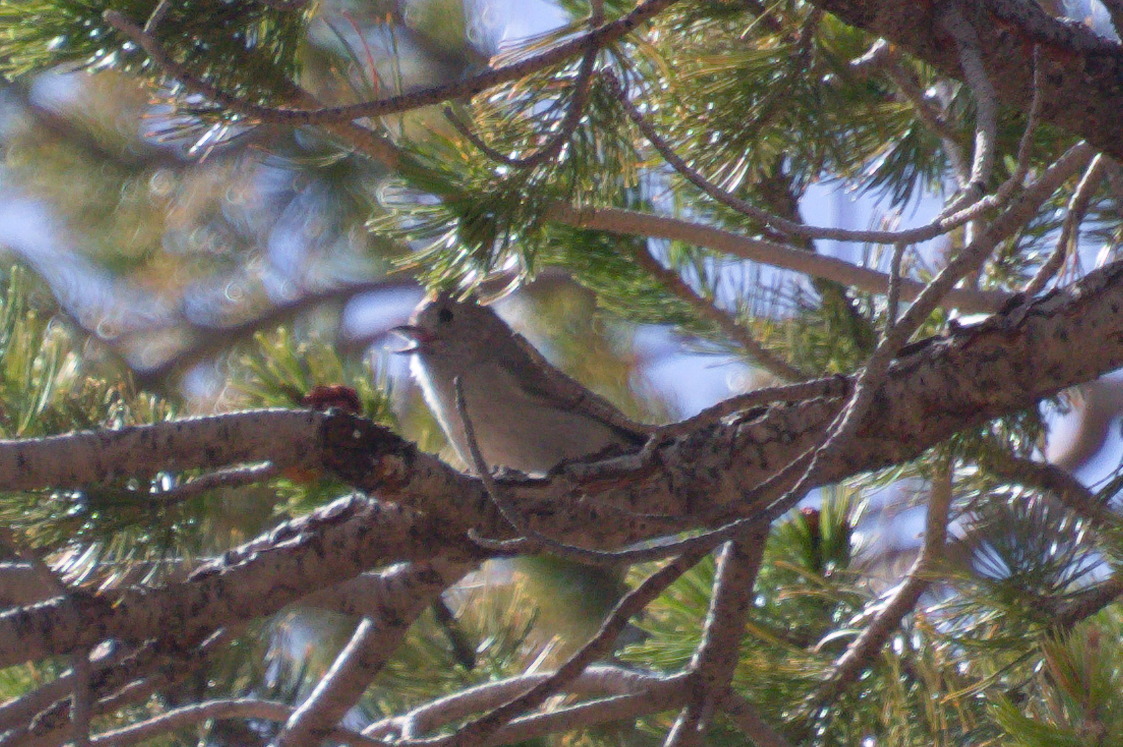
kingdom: Animalia
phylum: Chordata
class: Aves
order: Passeriformes
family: Paridae
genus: Baeolophus
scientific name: Baeolophus ridgwayi
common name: Juniper titmouse
